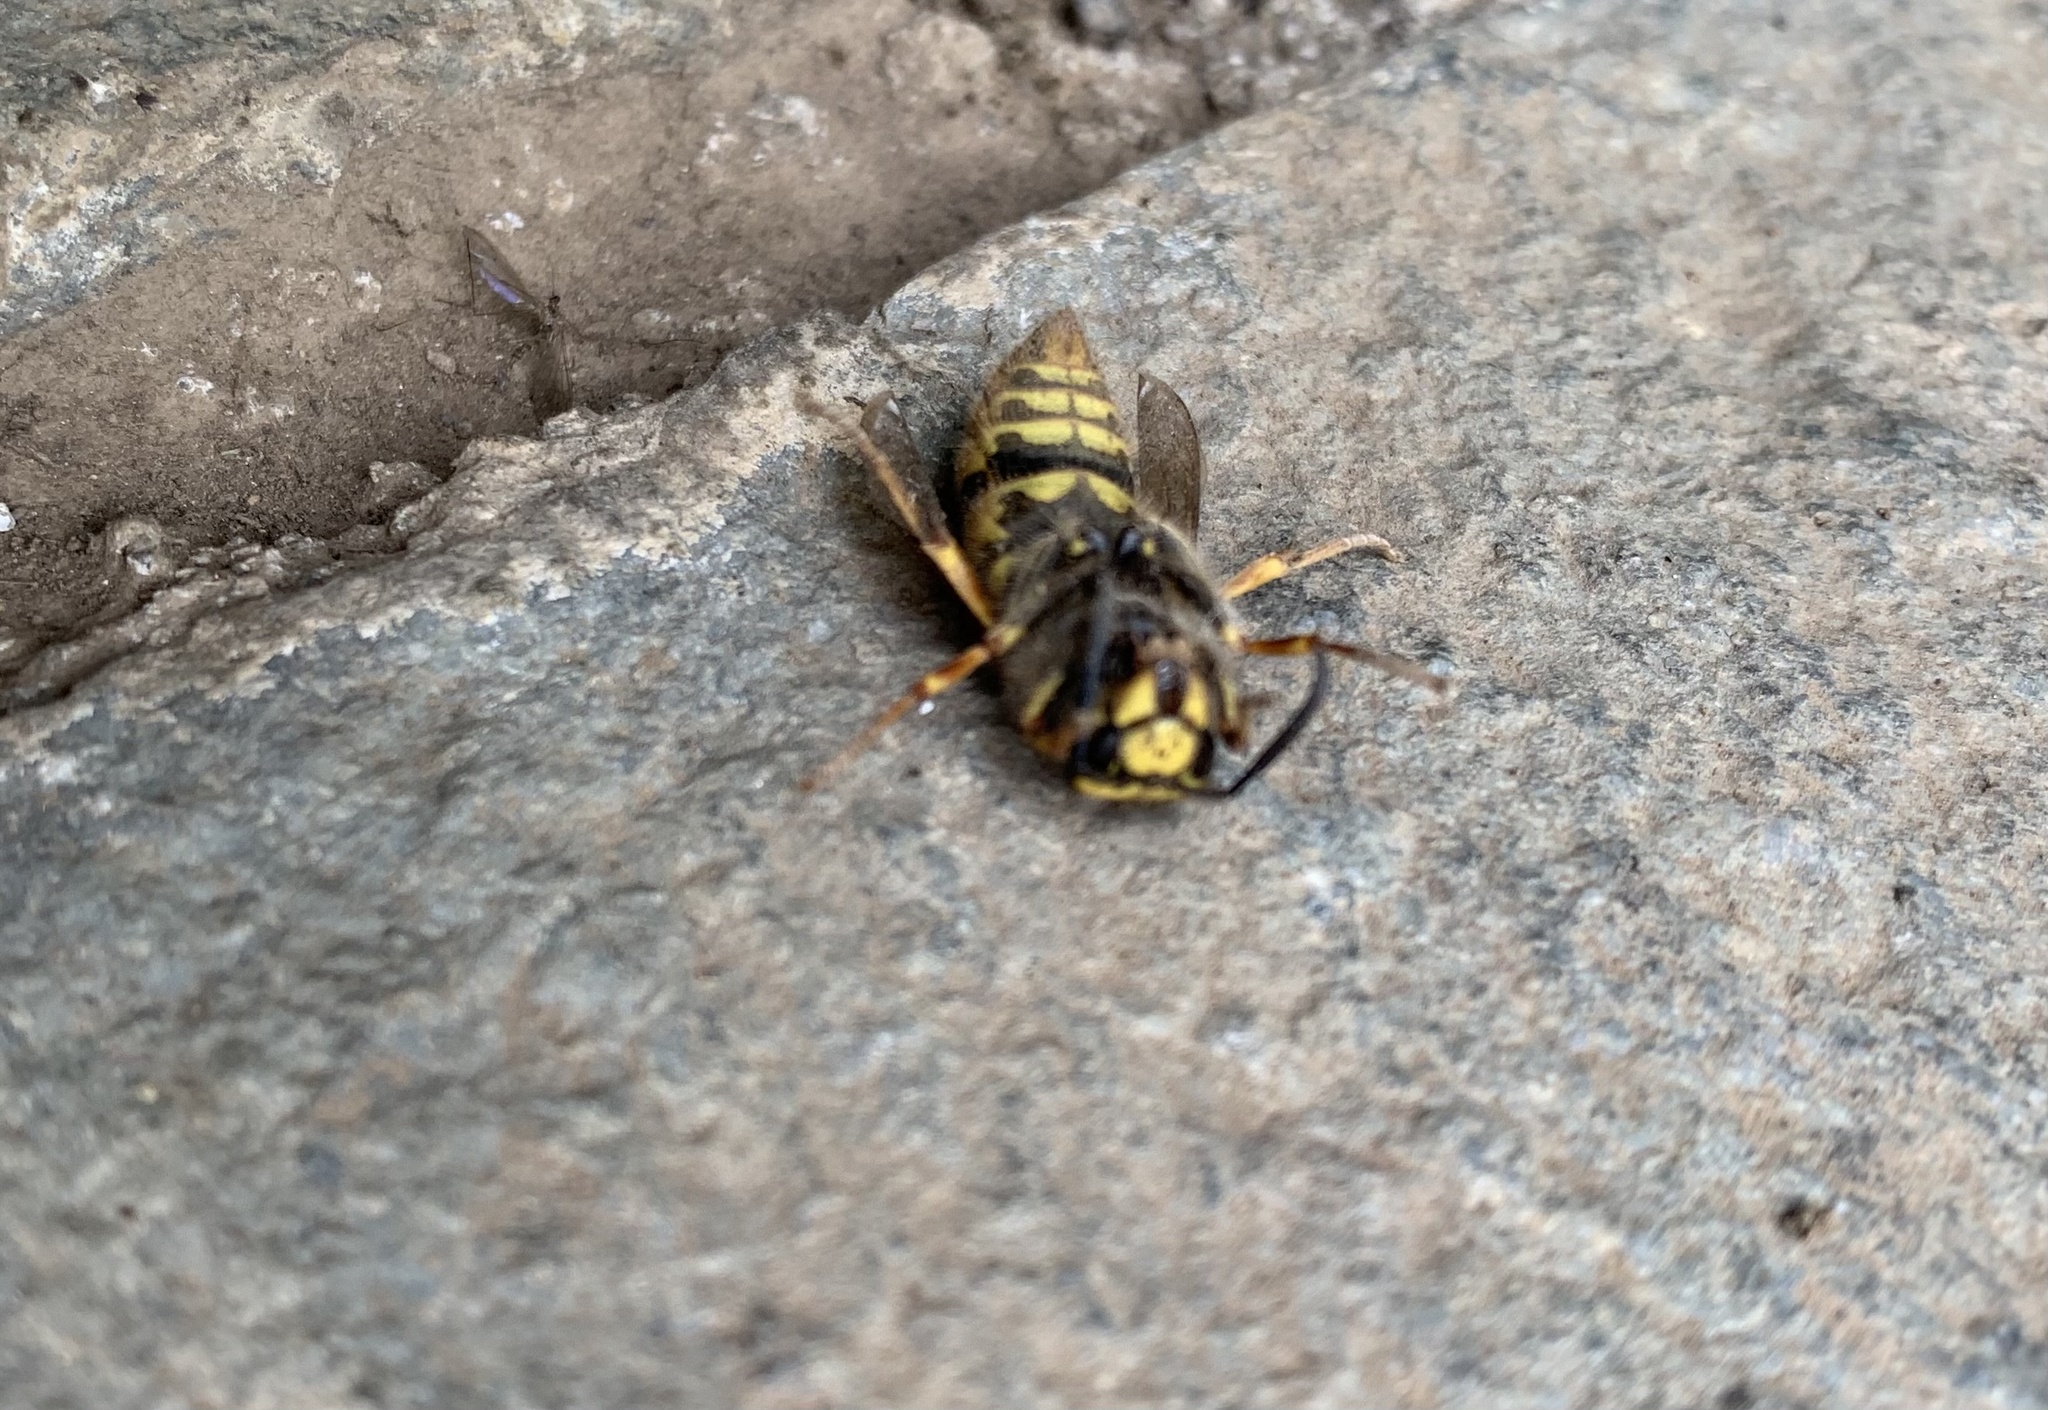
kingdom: Animalia
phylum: Arthropoda
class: Insecta
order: Hymenoptera
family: Vespidae
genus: Vespula
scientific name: Vespula germanica
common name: German wasp
